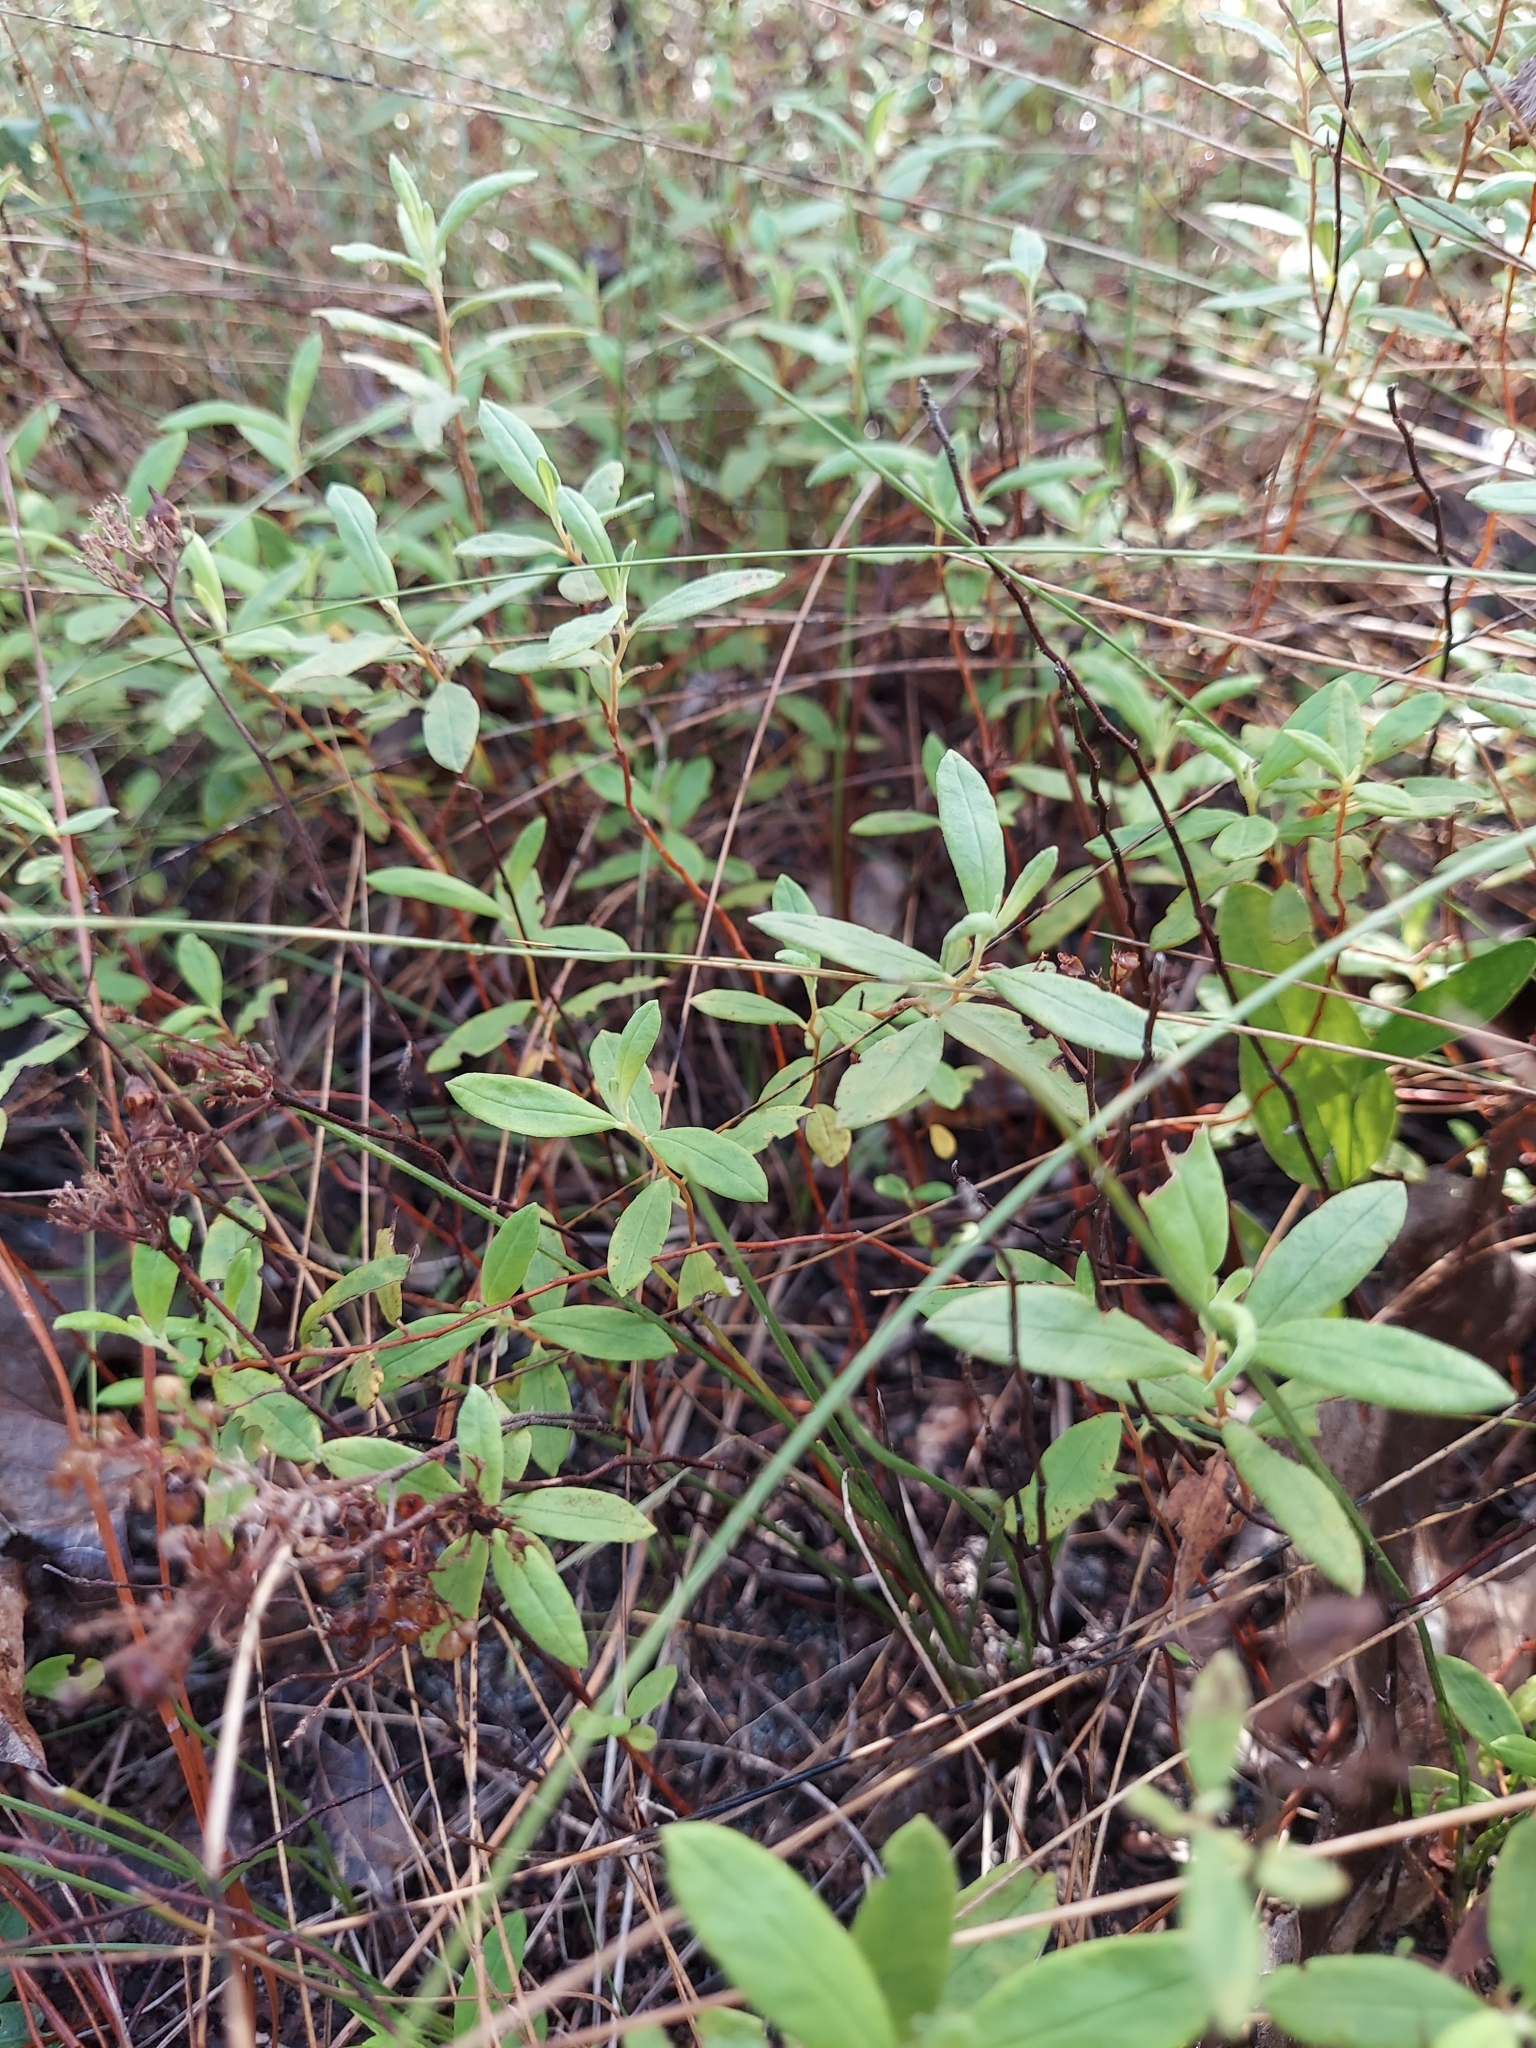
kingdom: Plantae
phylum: Tracheophyta
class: Magnoliopsida
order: Malvales
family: Cistaceae
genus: Crocanthemum
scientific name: Crocanthemum corymbosum
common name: Pinebarren sun-rose
